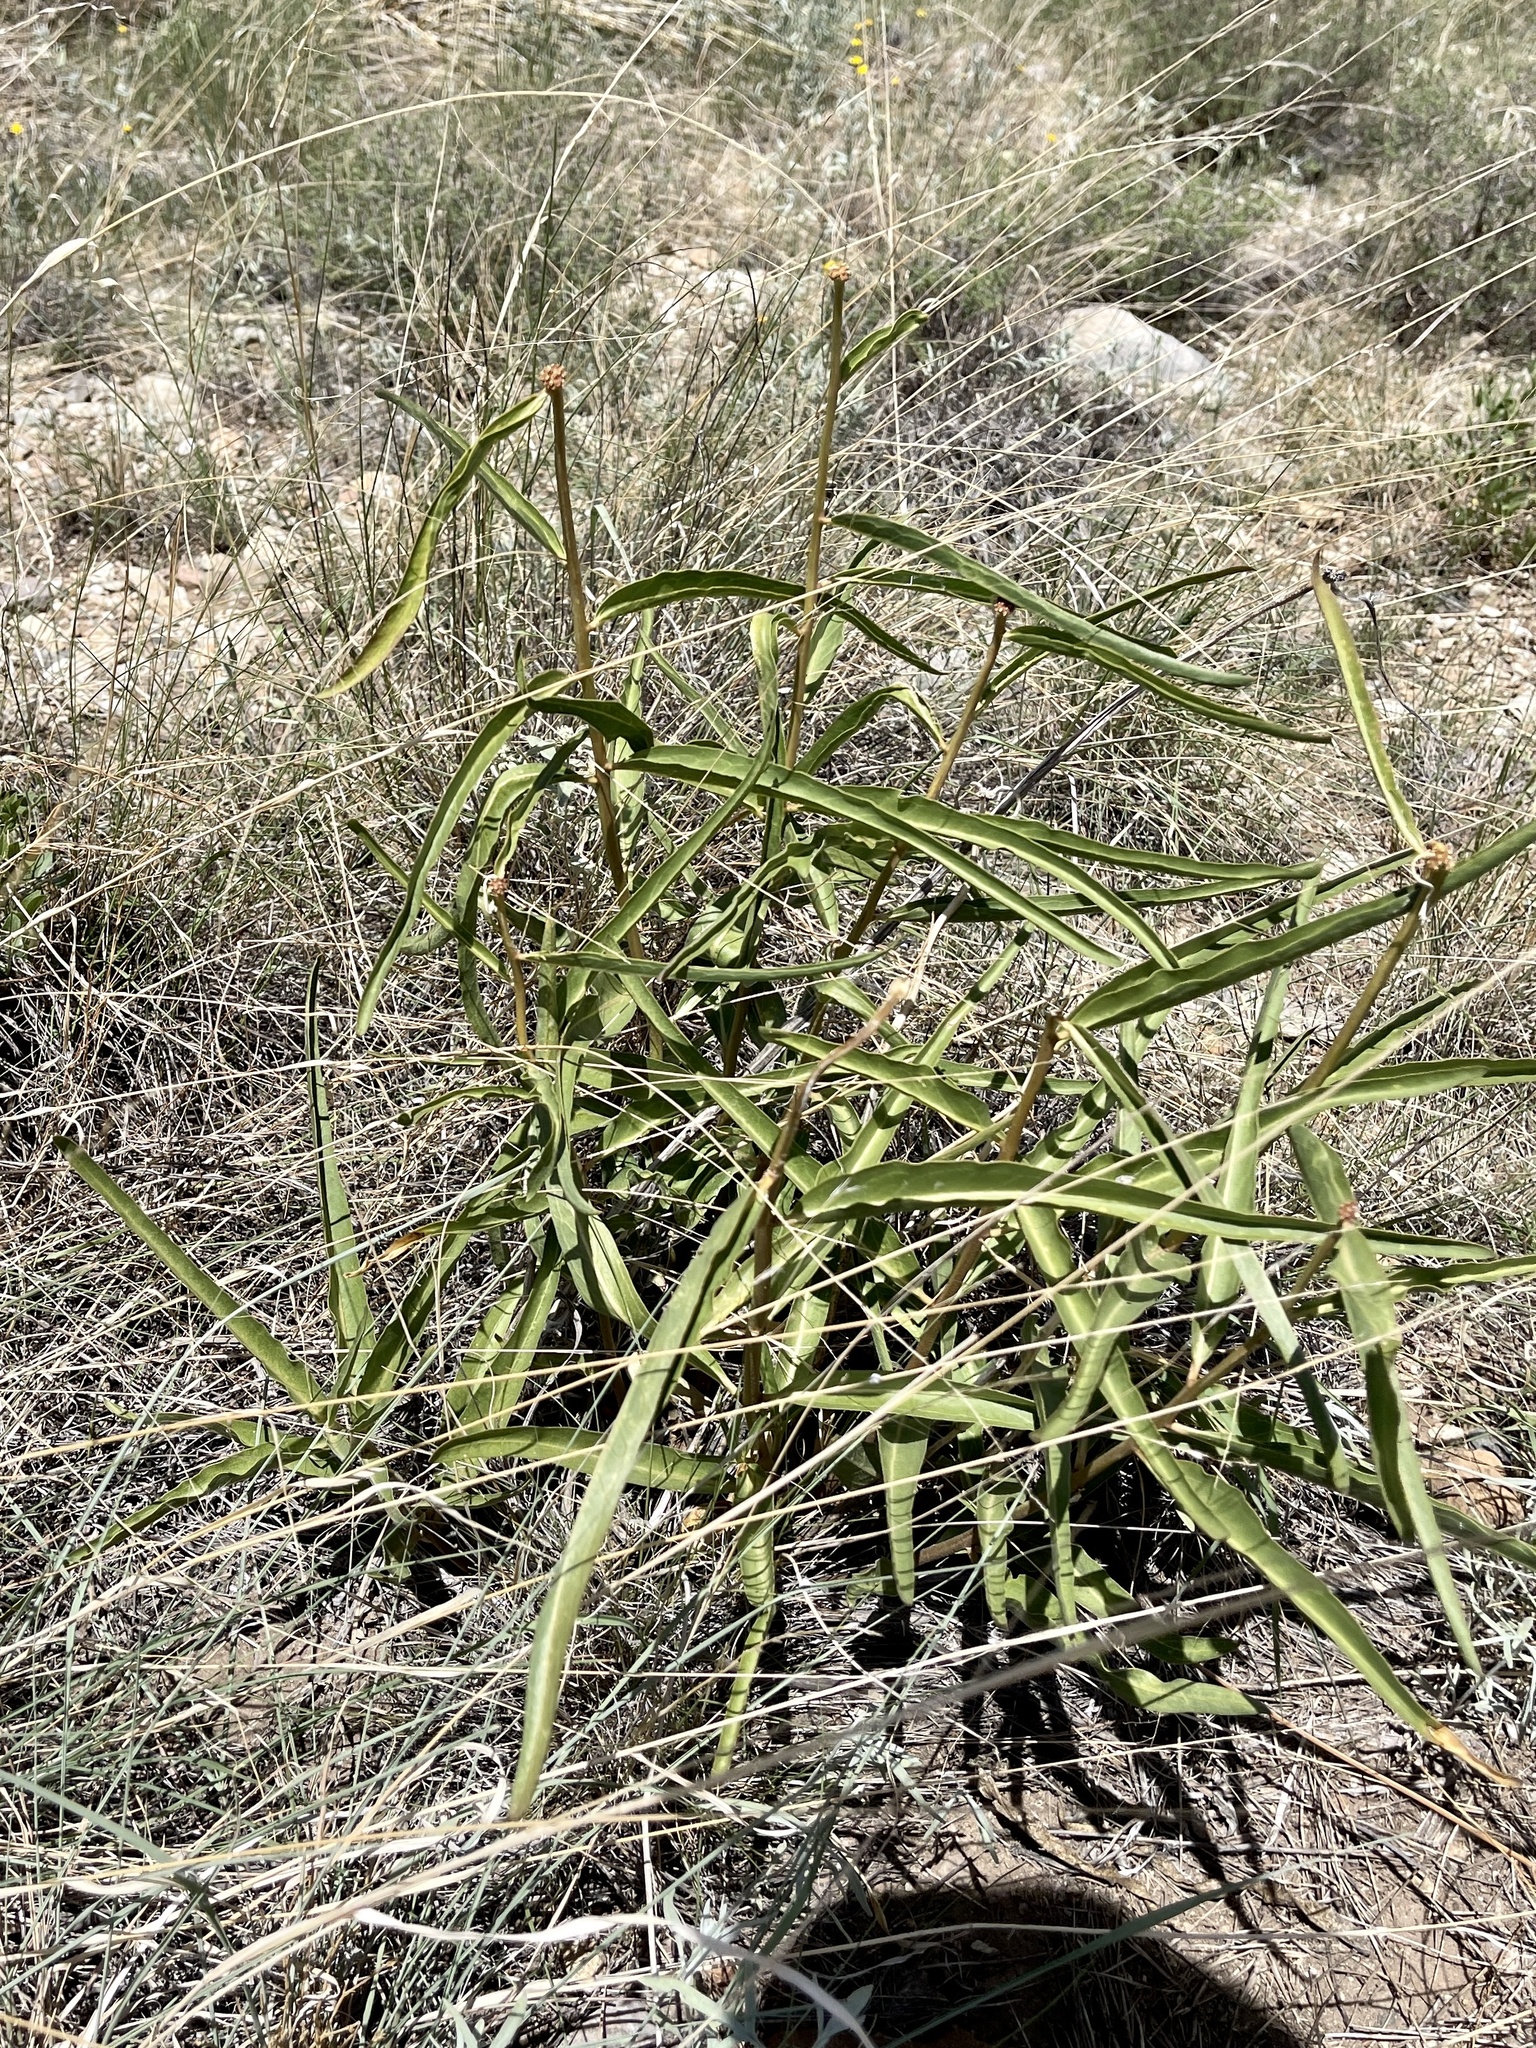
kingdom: Plantae
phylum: Tracheophyta
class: Magnoliopsida
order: Gentianales
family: Apocynaceae
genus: Asclepias
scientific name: Asclepias asperula
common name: Antelope horns
